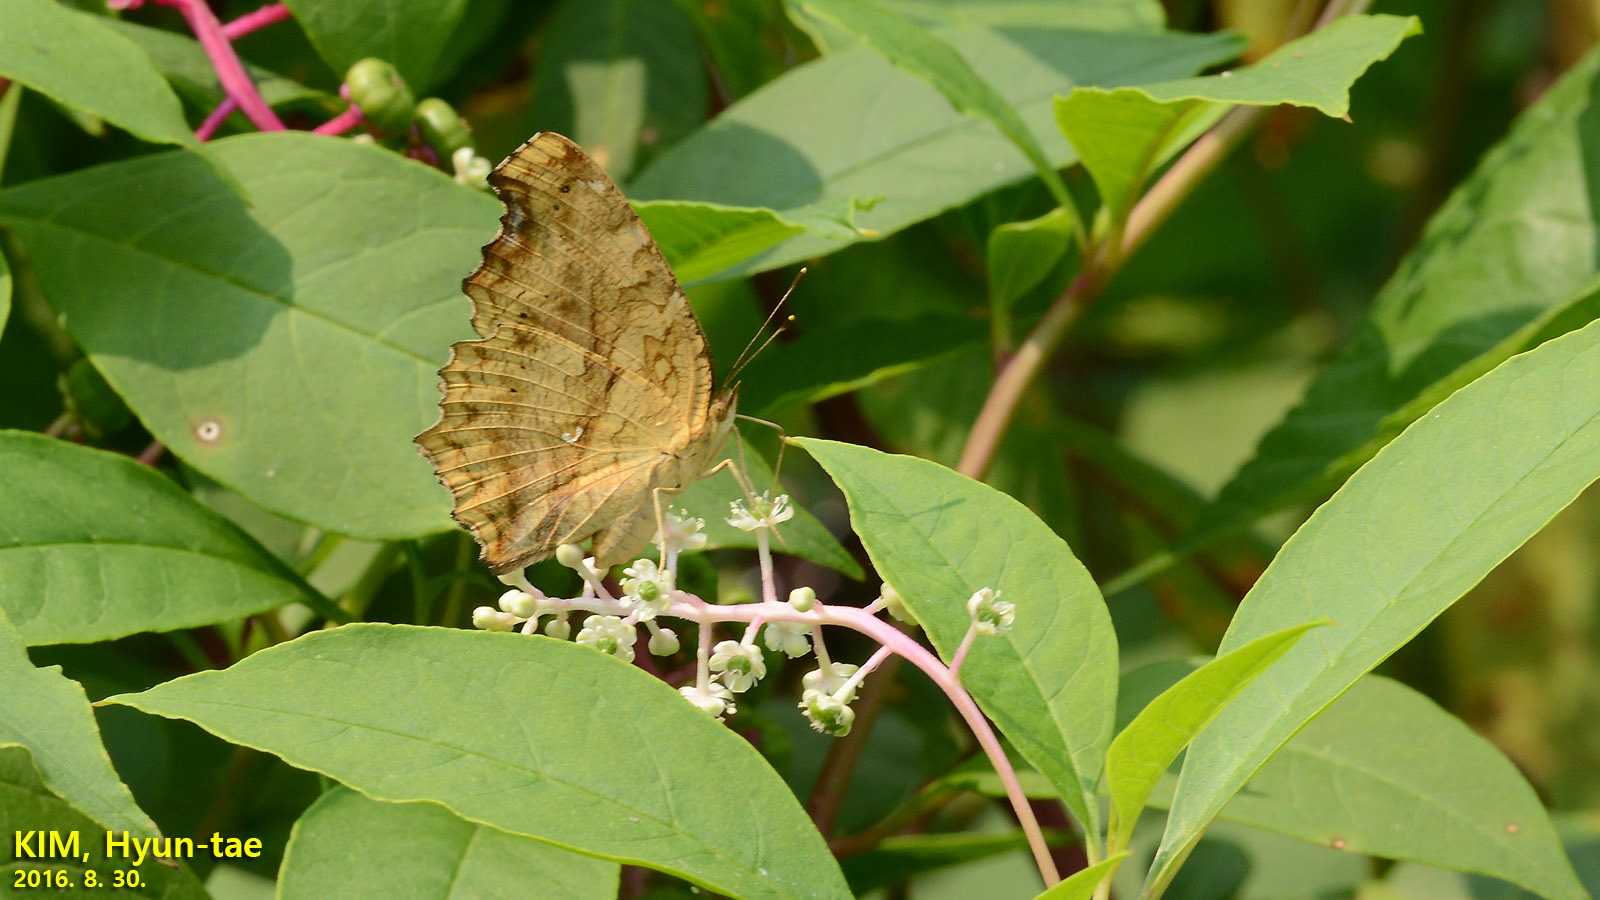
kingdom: Animalia
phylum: Arthropoda
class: Insecta
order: Lepidoptera
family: Nymphalidae
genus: Polygonia
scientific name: Polygonia c-aureum
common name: Asian comma
